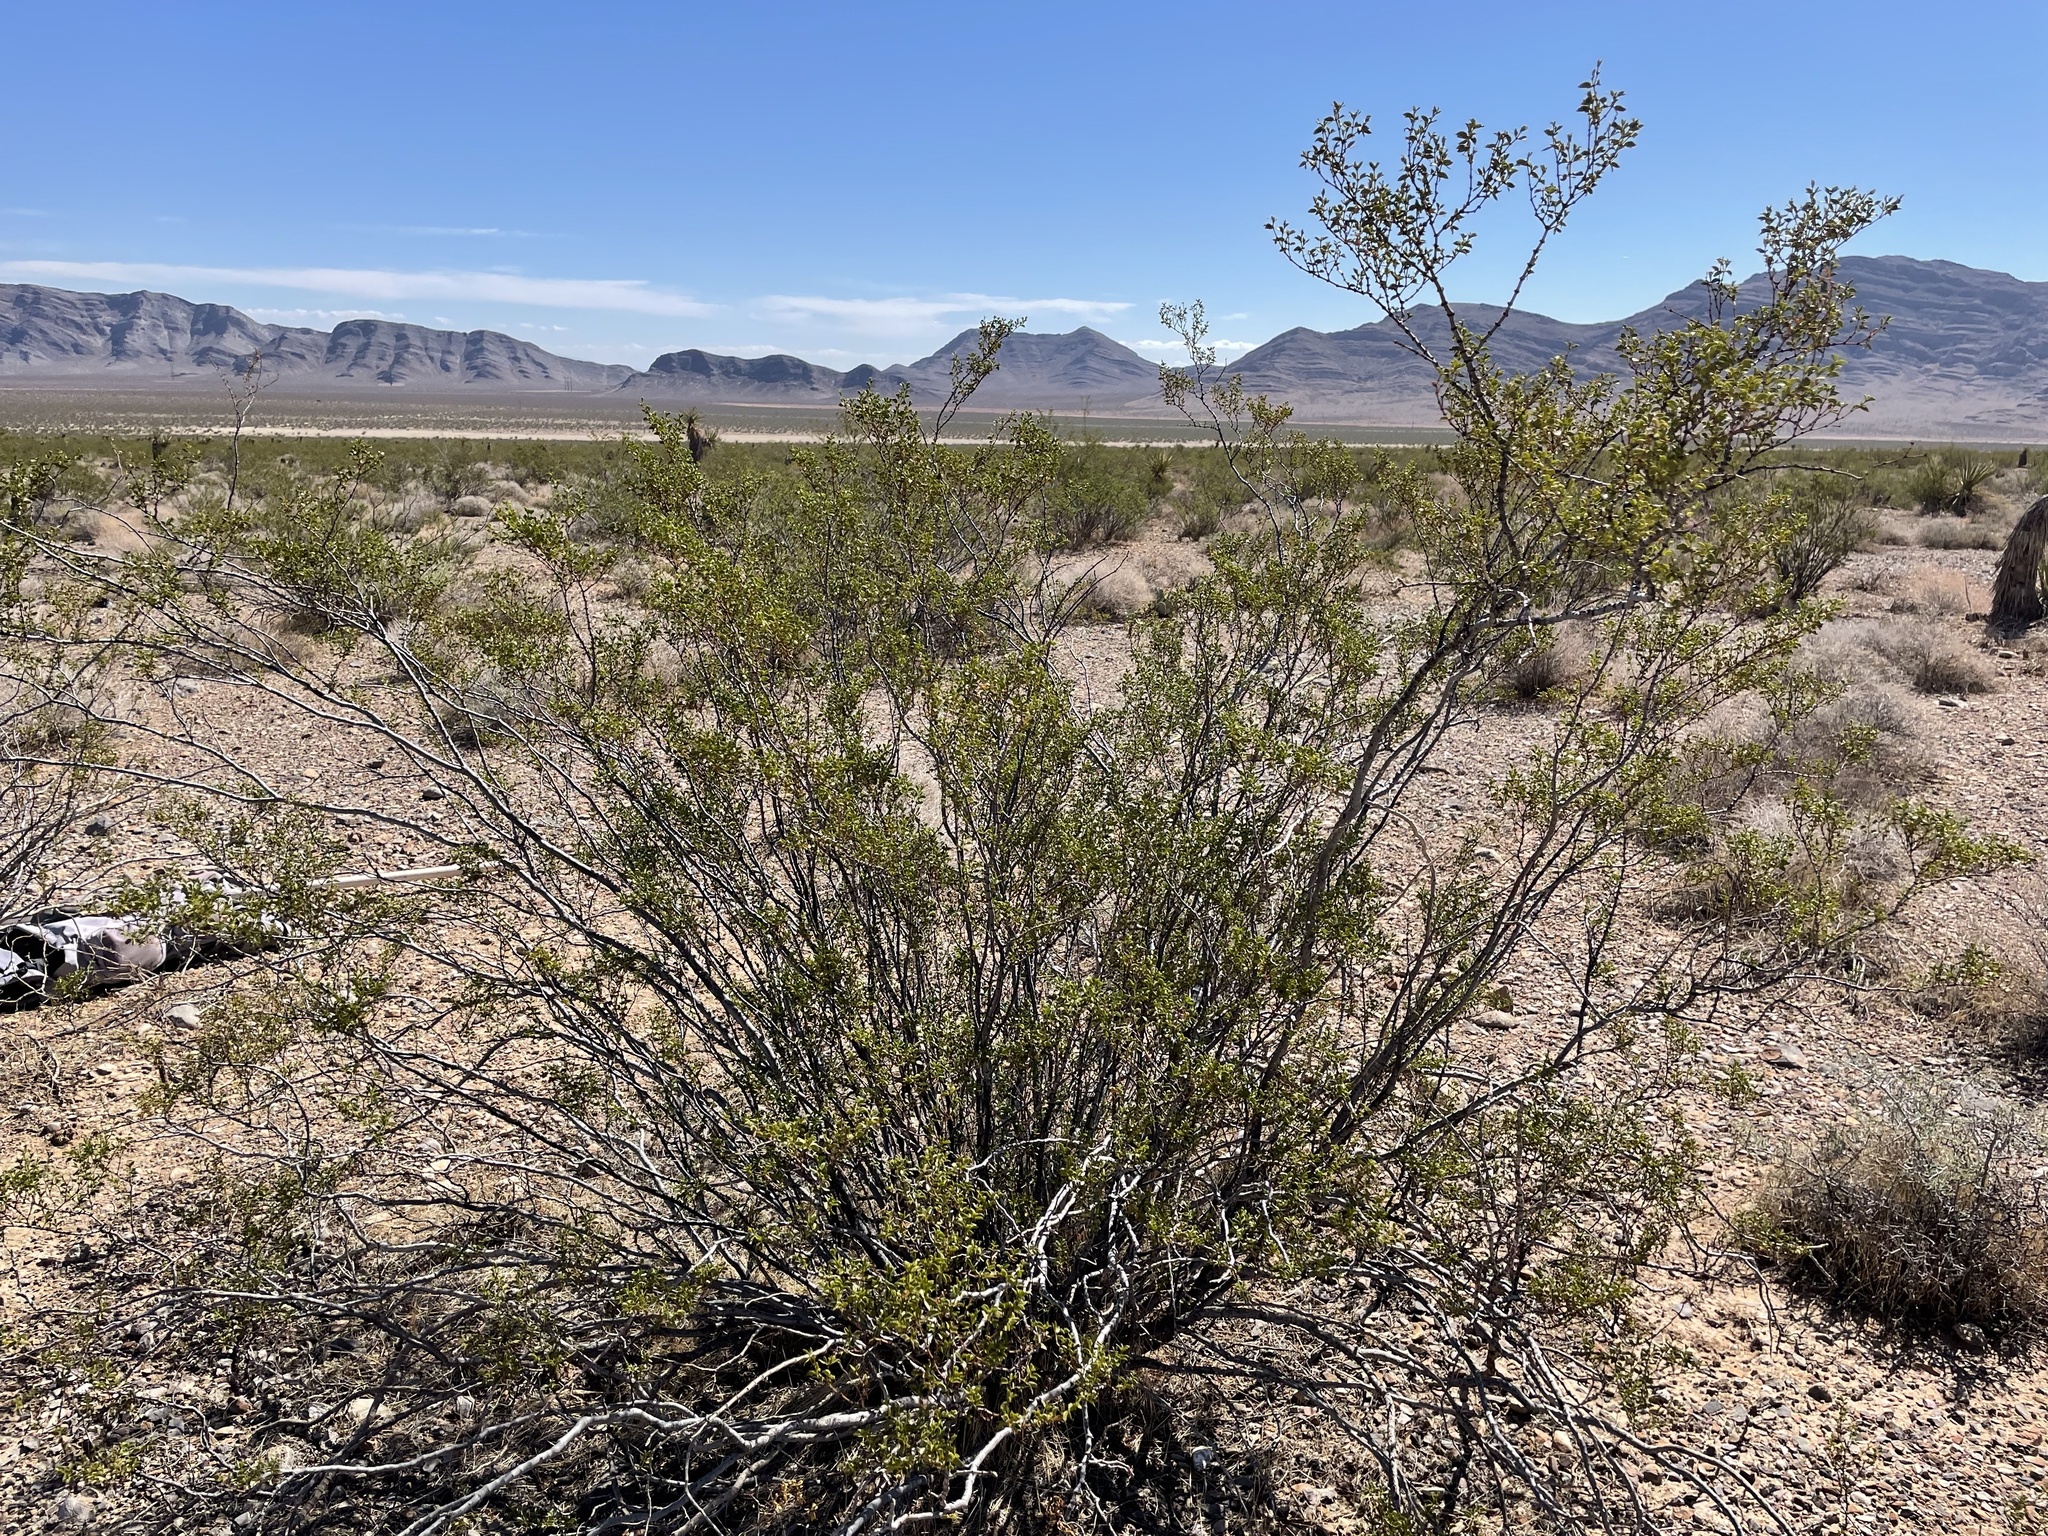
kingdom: Plantae
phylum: Tracheophyta
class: Magnoliopsida
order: Zygophyllales
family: Zygophyllaceae
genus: Larrea
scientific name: Larrea tridentata
